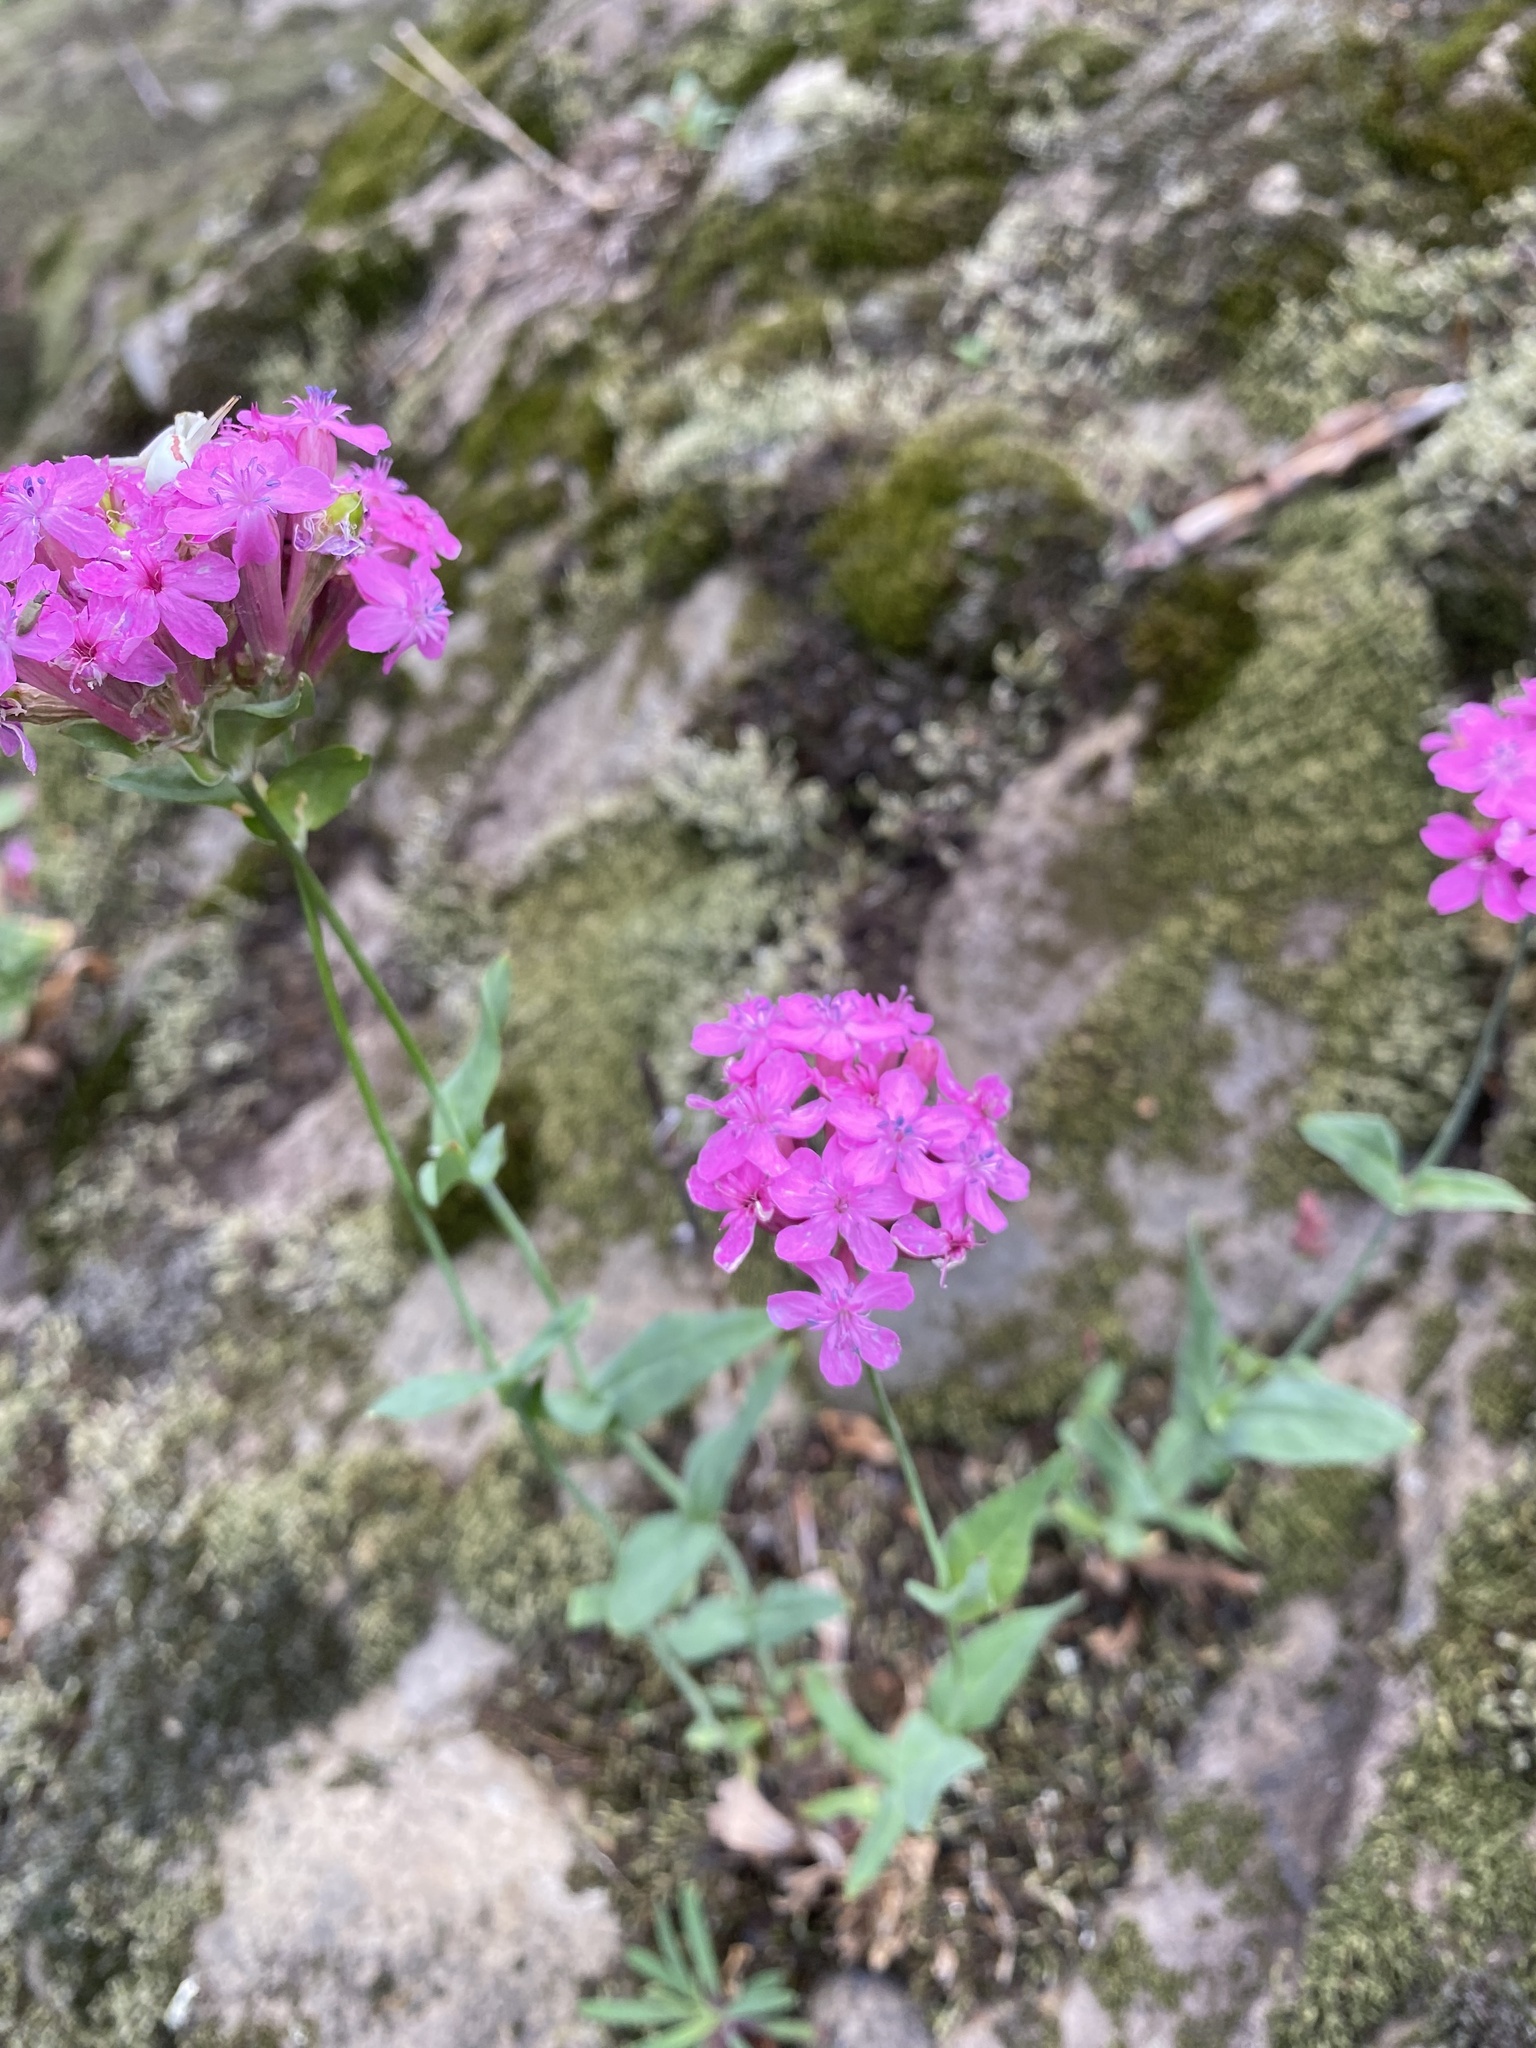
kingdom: Plantae
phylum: Tracheophyta
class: Magnoliopsida
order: Caryophyllales
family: Caryophyllaceae
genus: Atocion
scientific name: Atocion compactum
